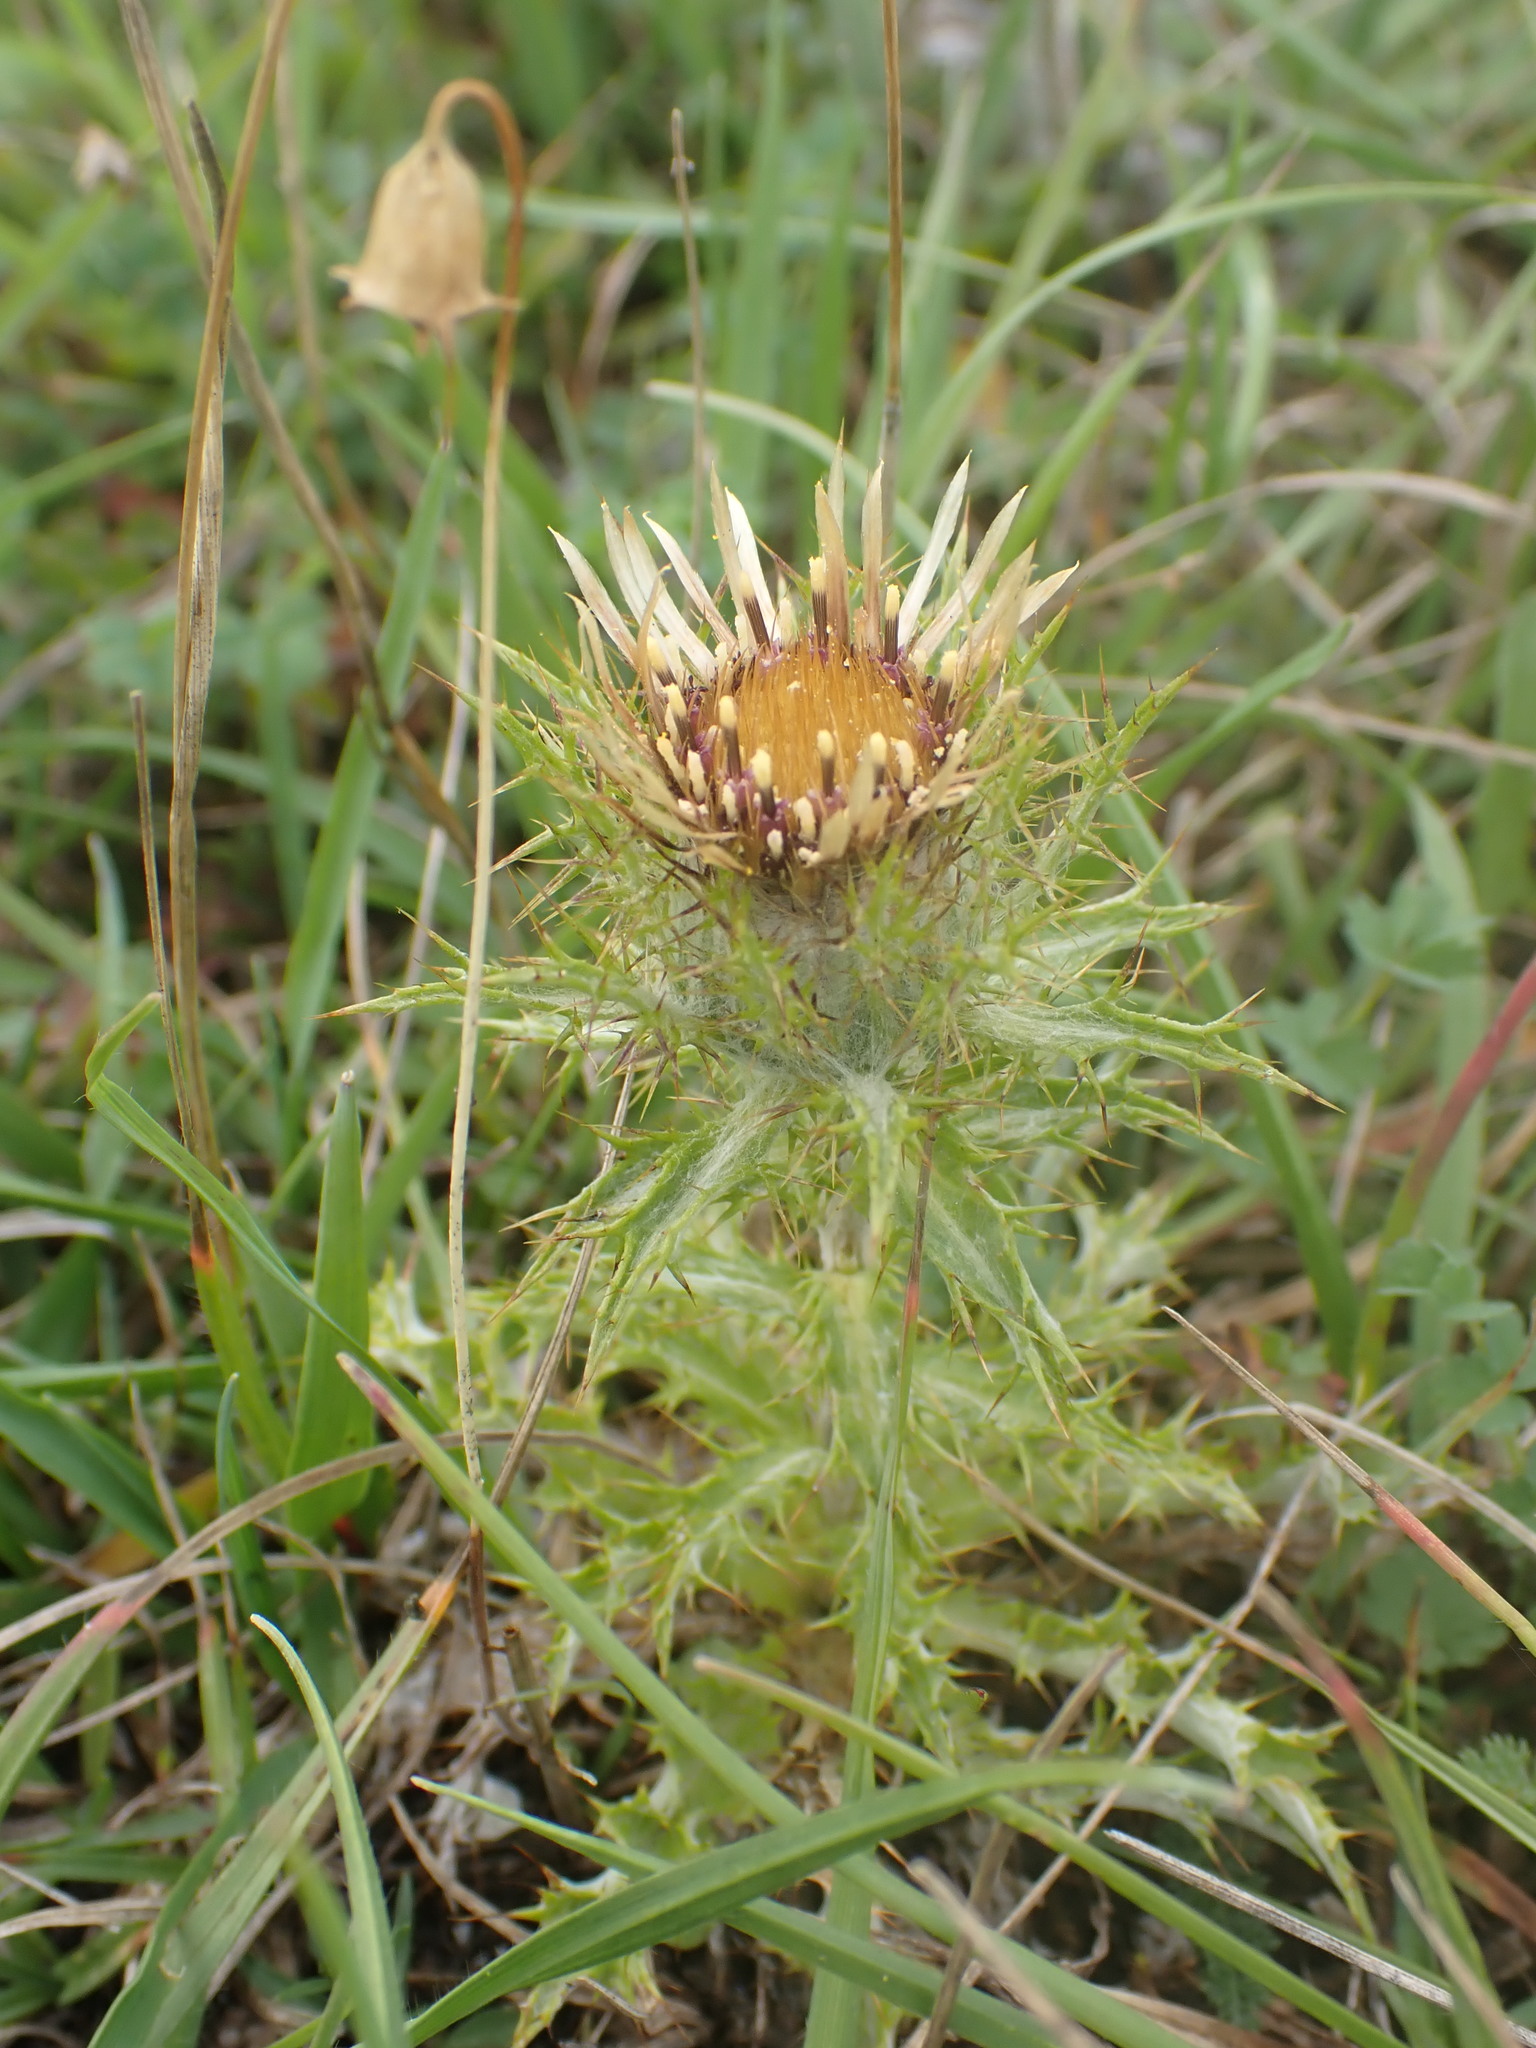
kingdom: Plantae
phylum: Tracheophyta
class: Magnoliopsida
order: Asterales
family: Asteraceae
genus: Carlina
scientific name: Carlina vulgaris
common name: Carline thistle
